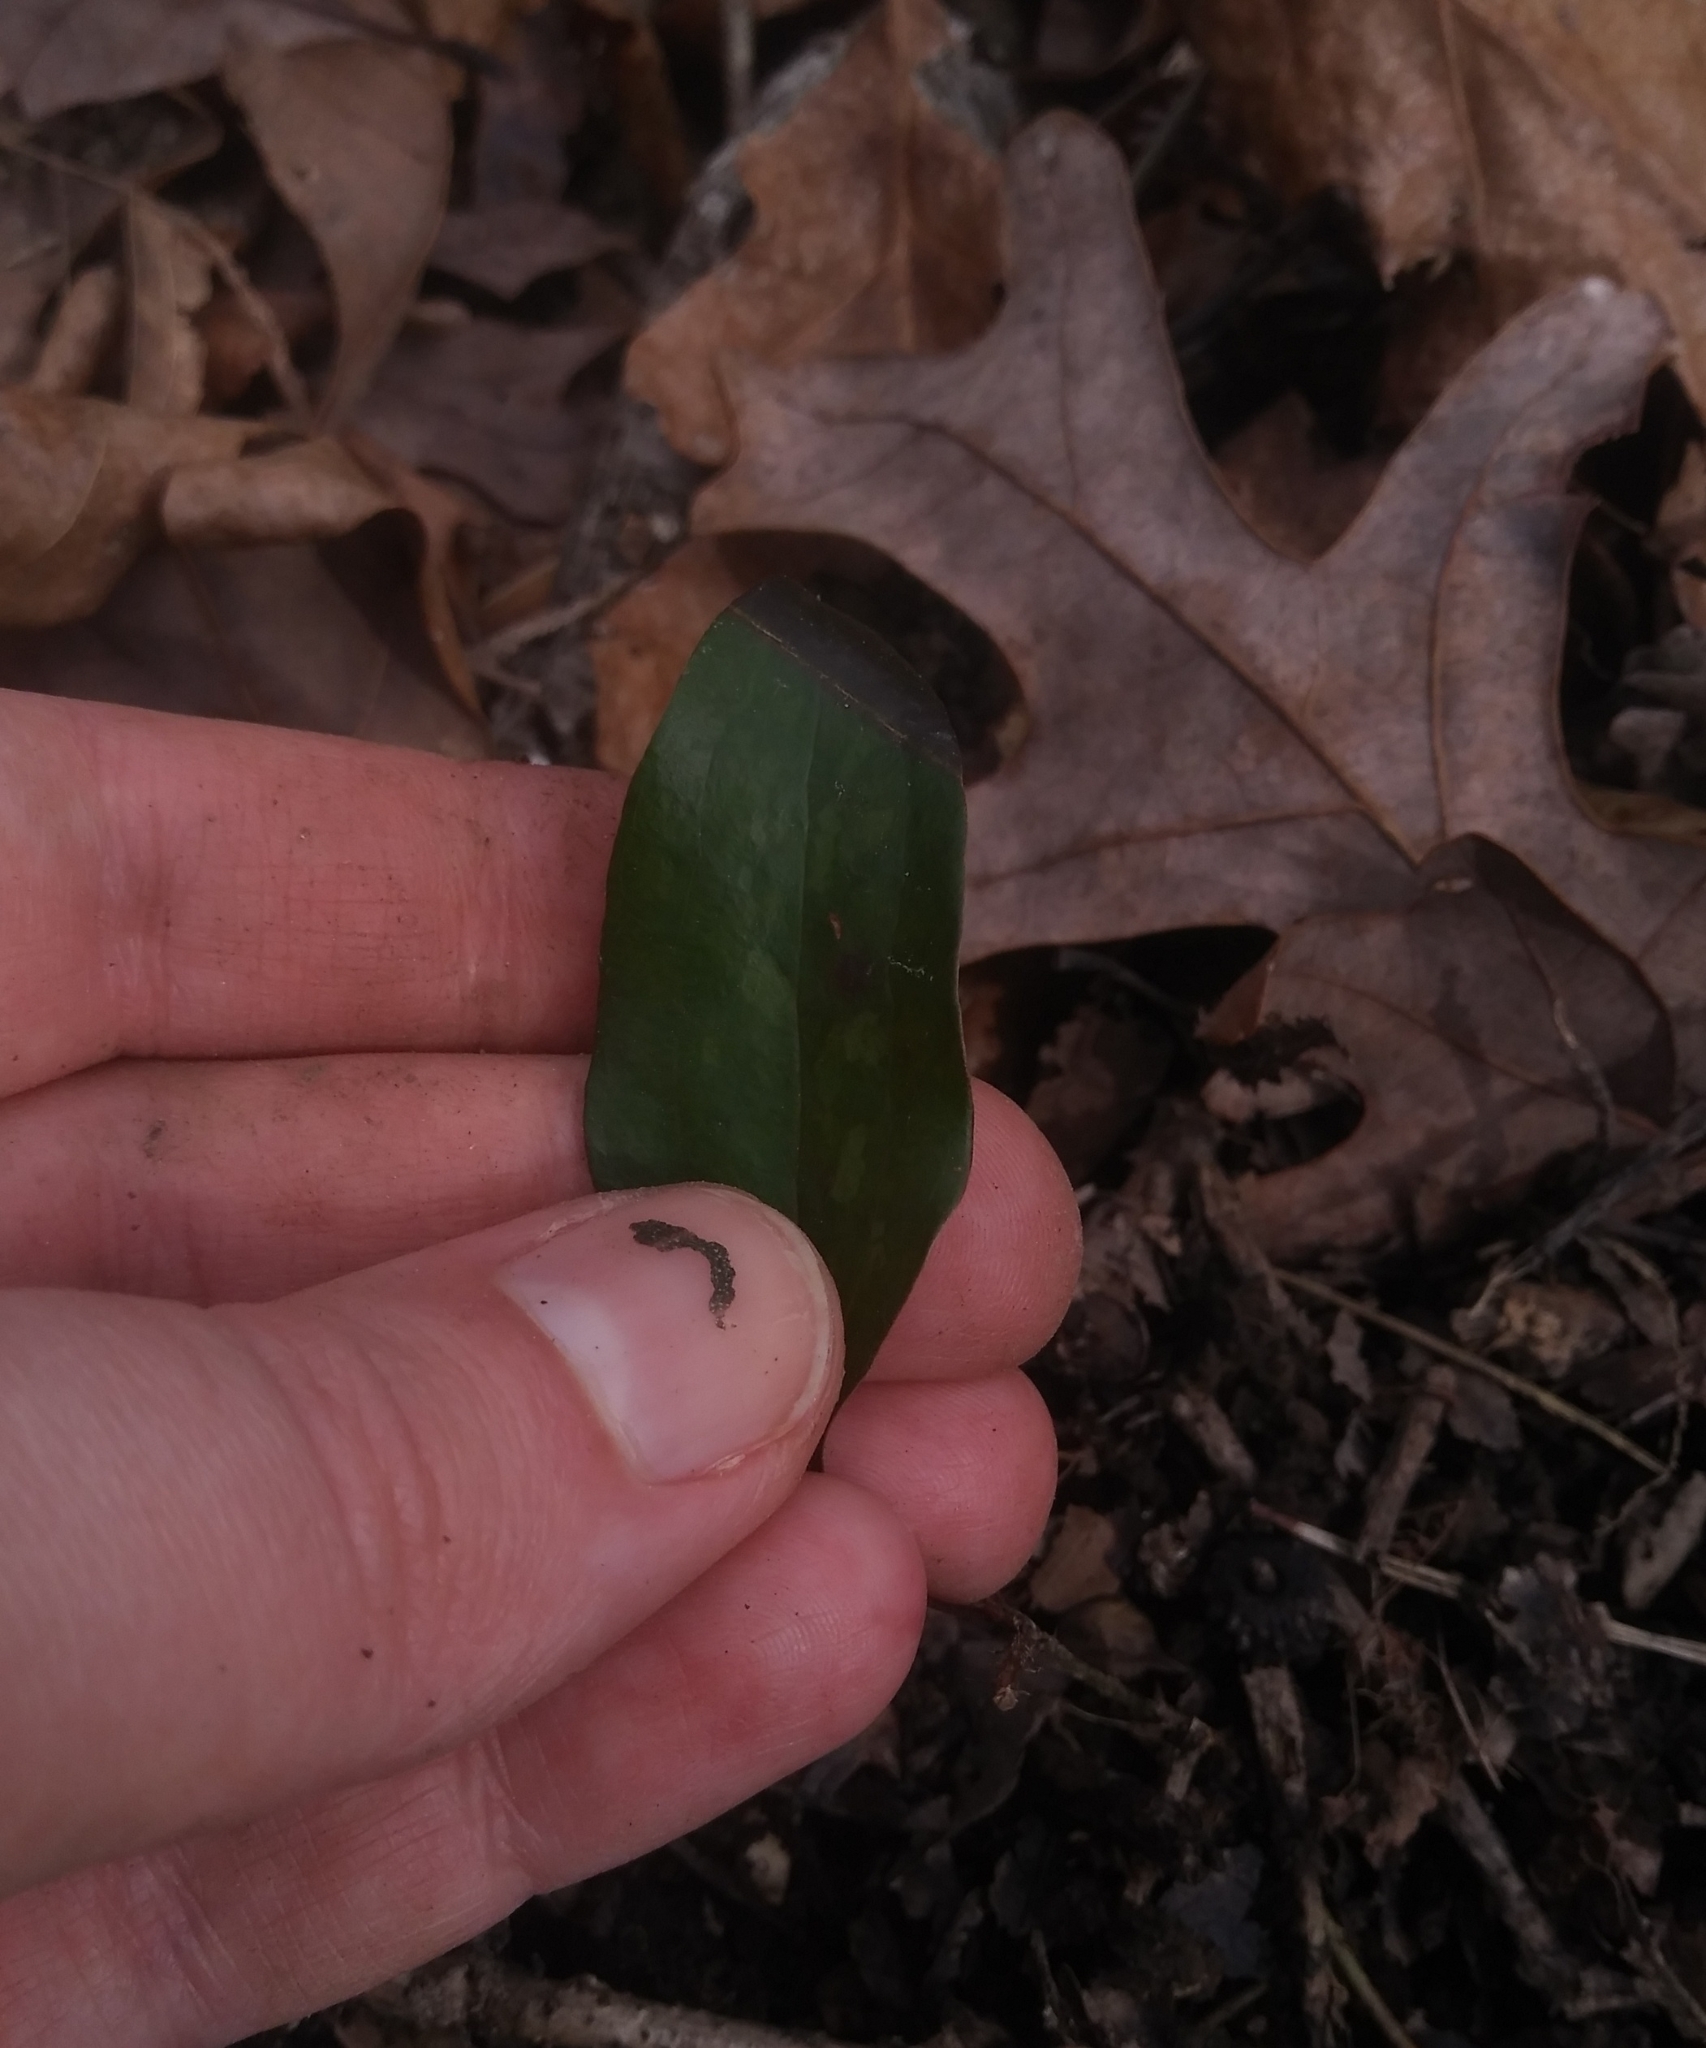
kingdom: Plantae
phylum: Tracheophyta
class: Liliopsida
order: Liliales
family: Smilacaceae
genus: Smilax
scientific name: Smilax glauca
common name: Cat greenbrier
